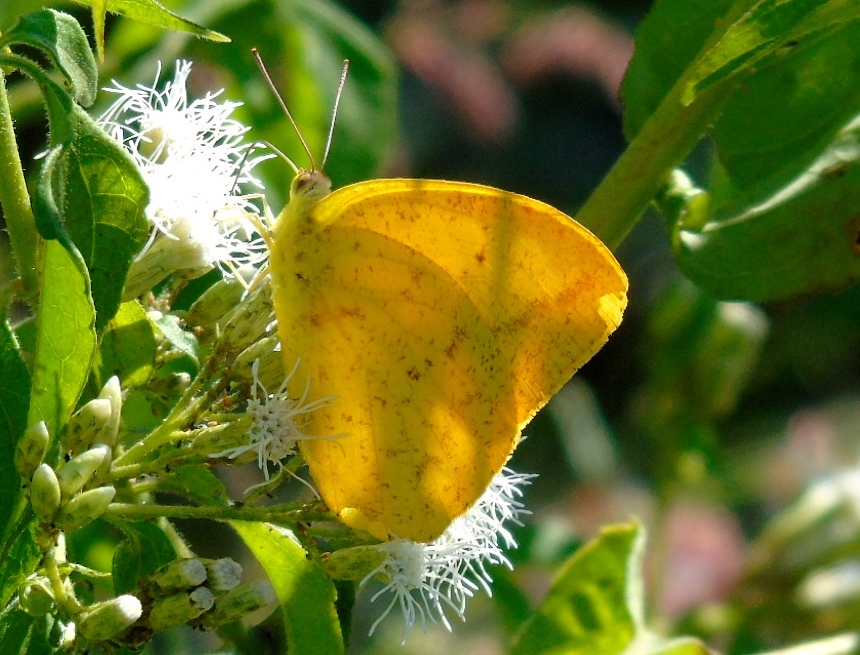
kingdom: Animalia
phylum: Arthropoda
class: Insecta
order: Lepidoptera
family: Pieridae
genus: Phoebis
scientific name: Phoebis agarithe
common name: Large orange sulphur
